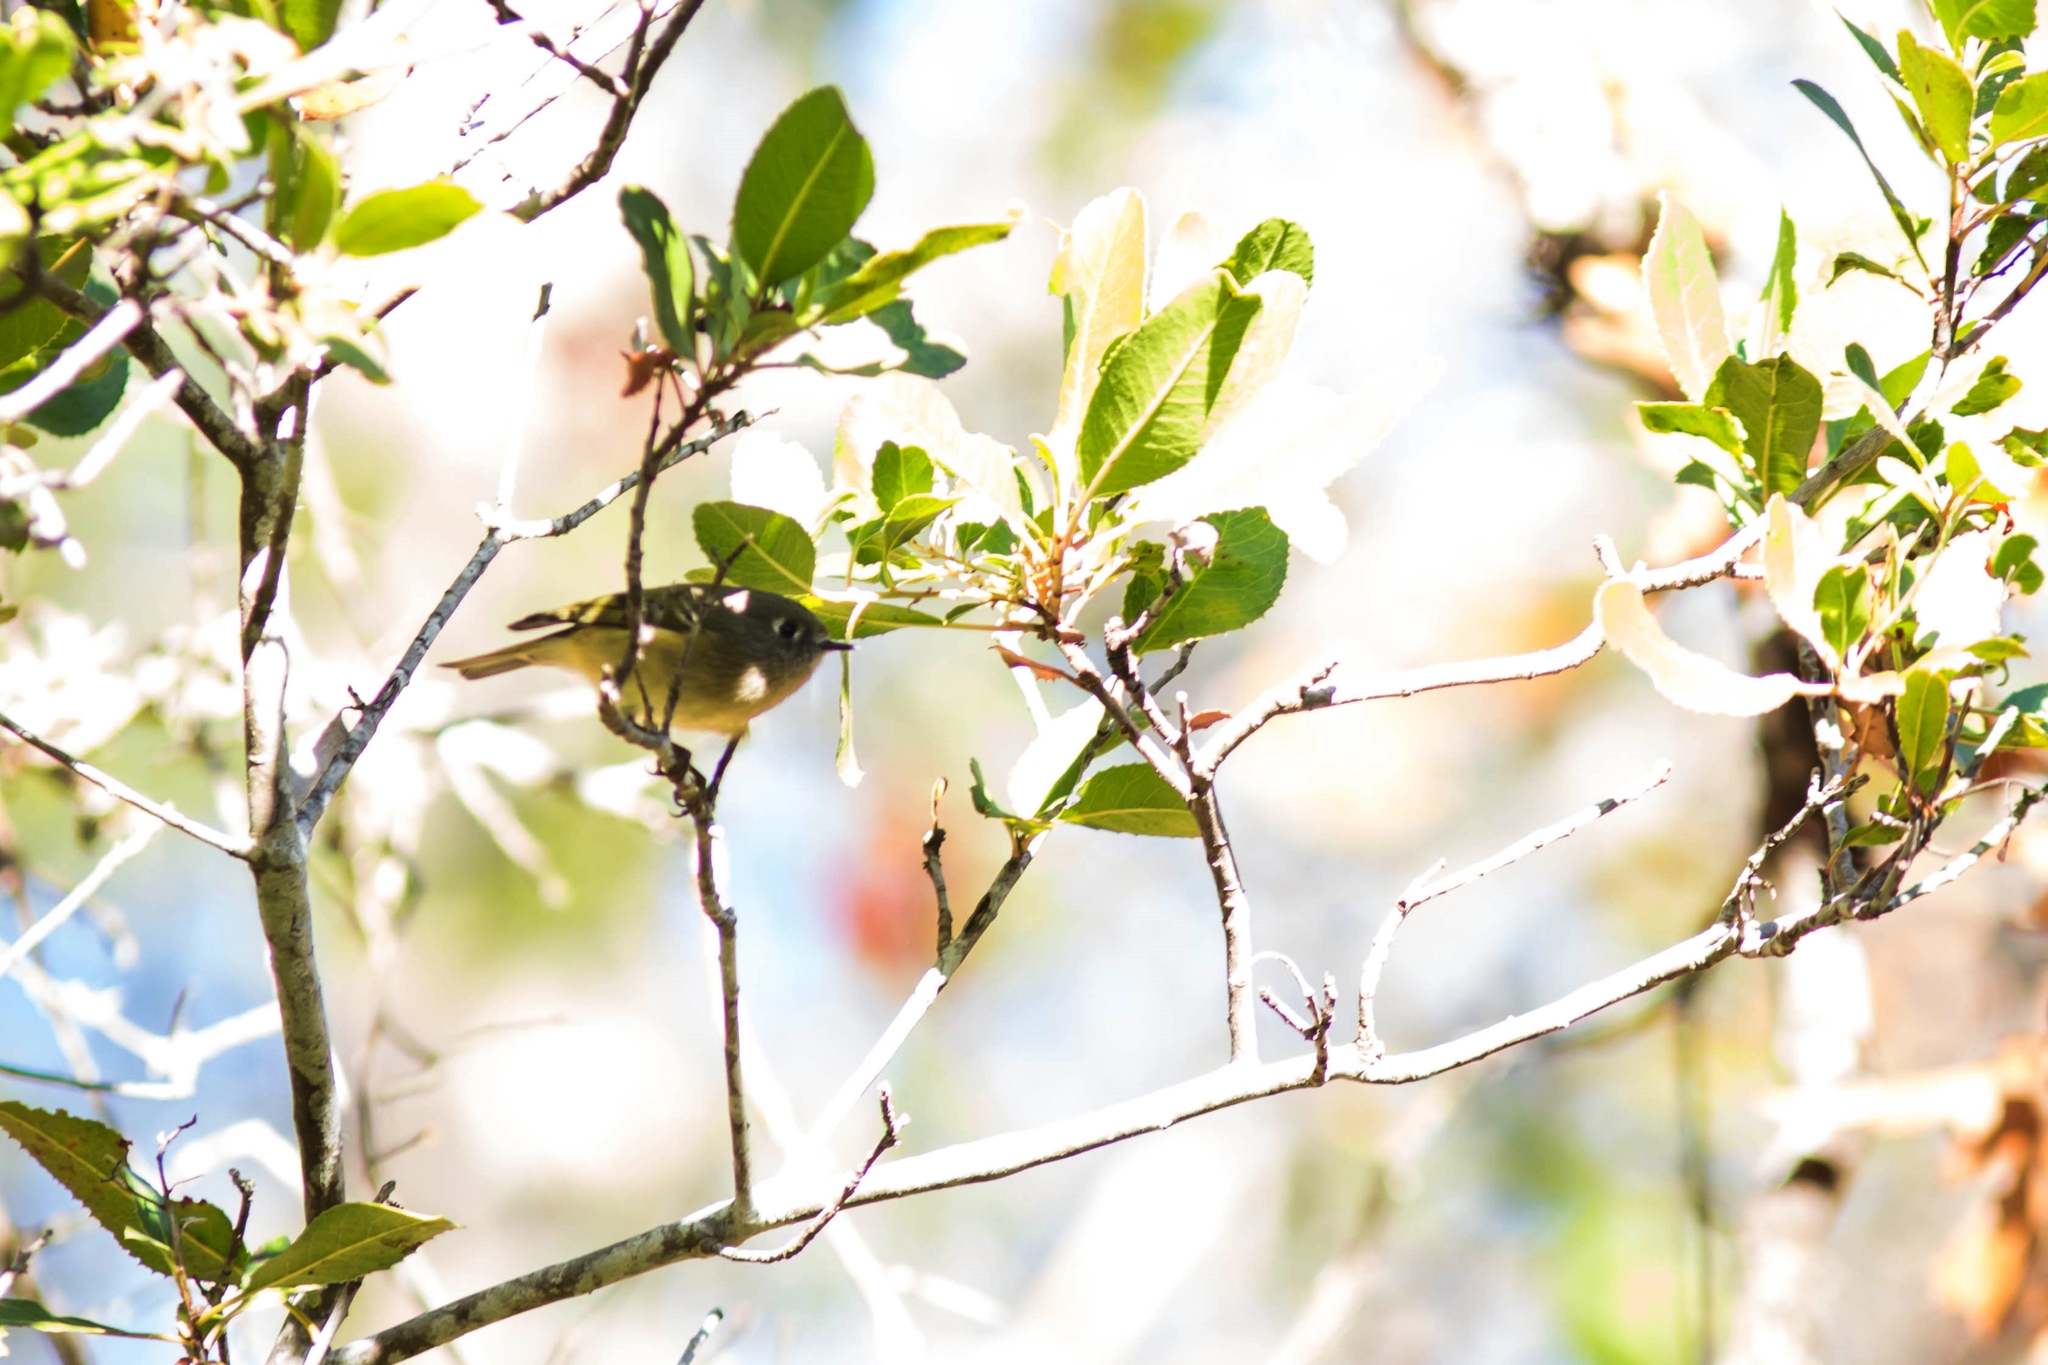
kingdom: Animalia
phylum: Chordata
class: Aves
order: Passeriformes
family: Regulidae
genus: Regulus
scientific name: Regulus calendula
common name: Ruby-crowned kinglet
